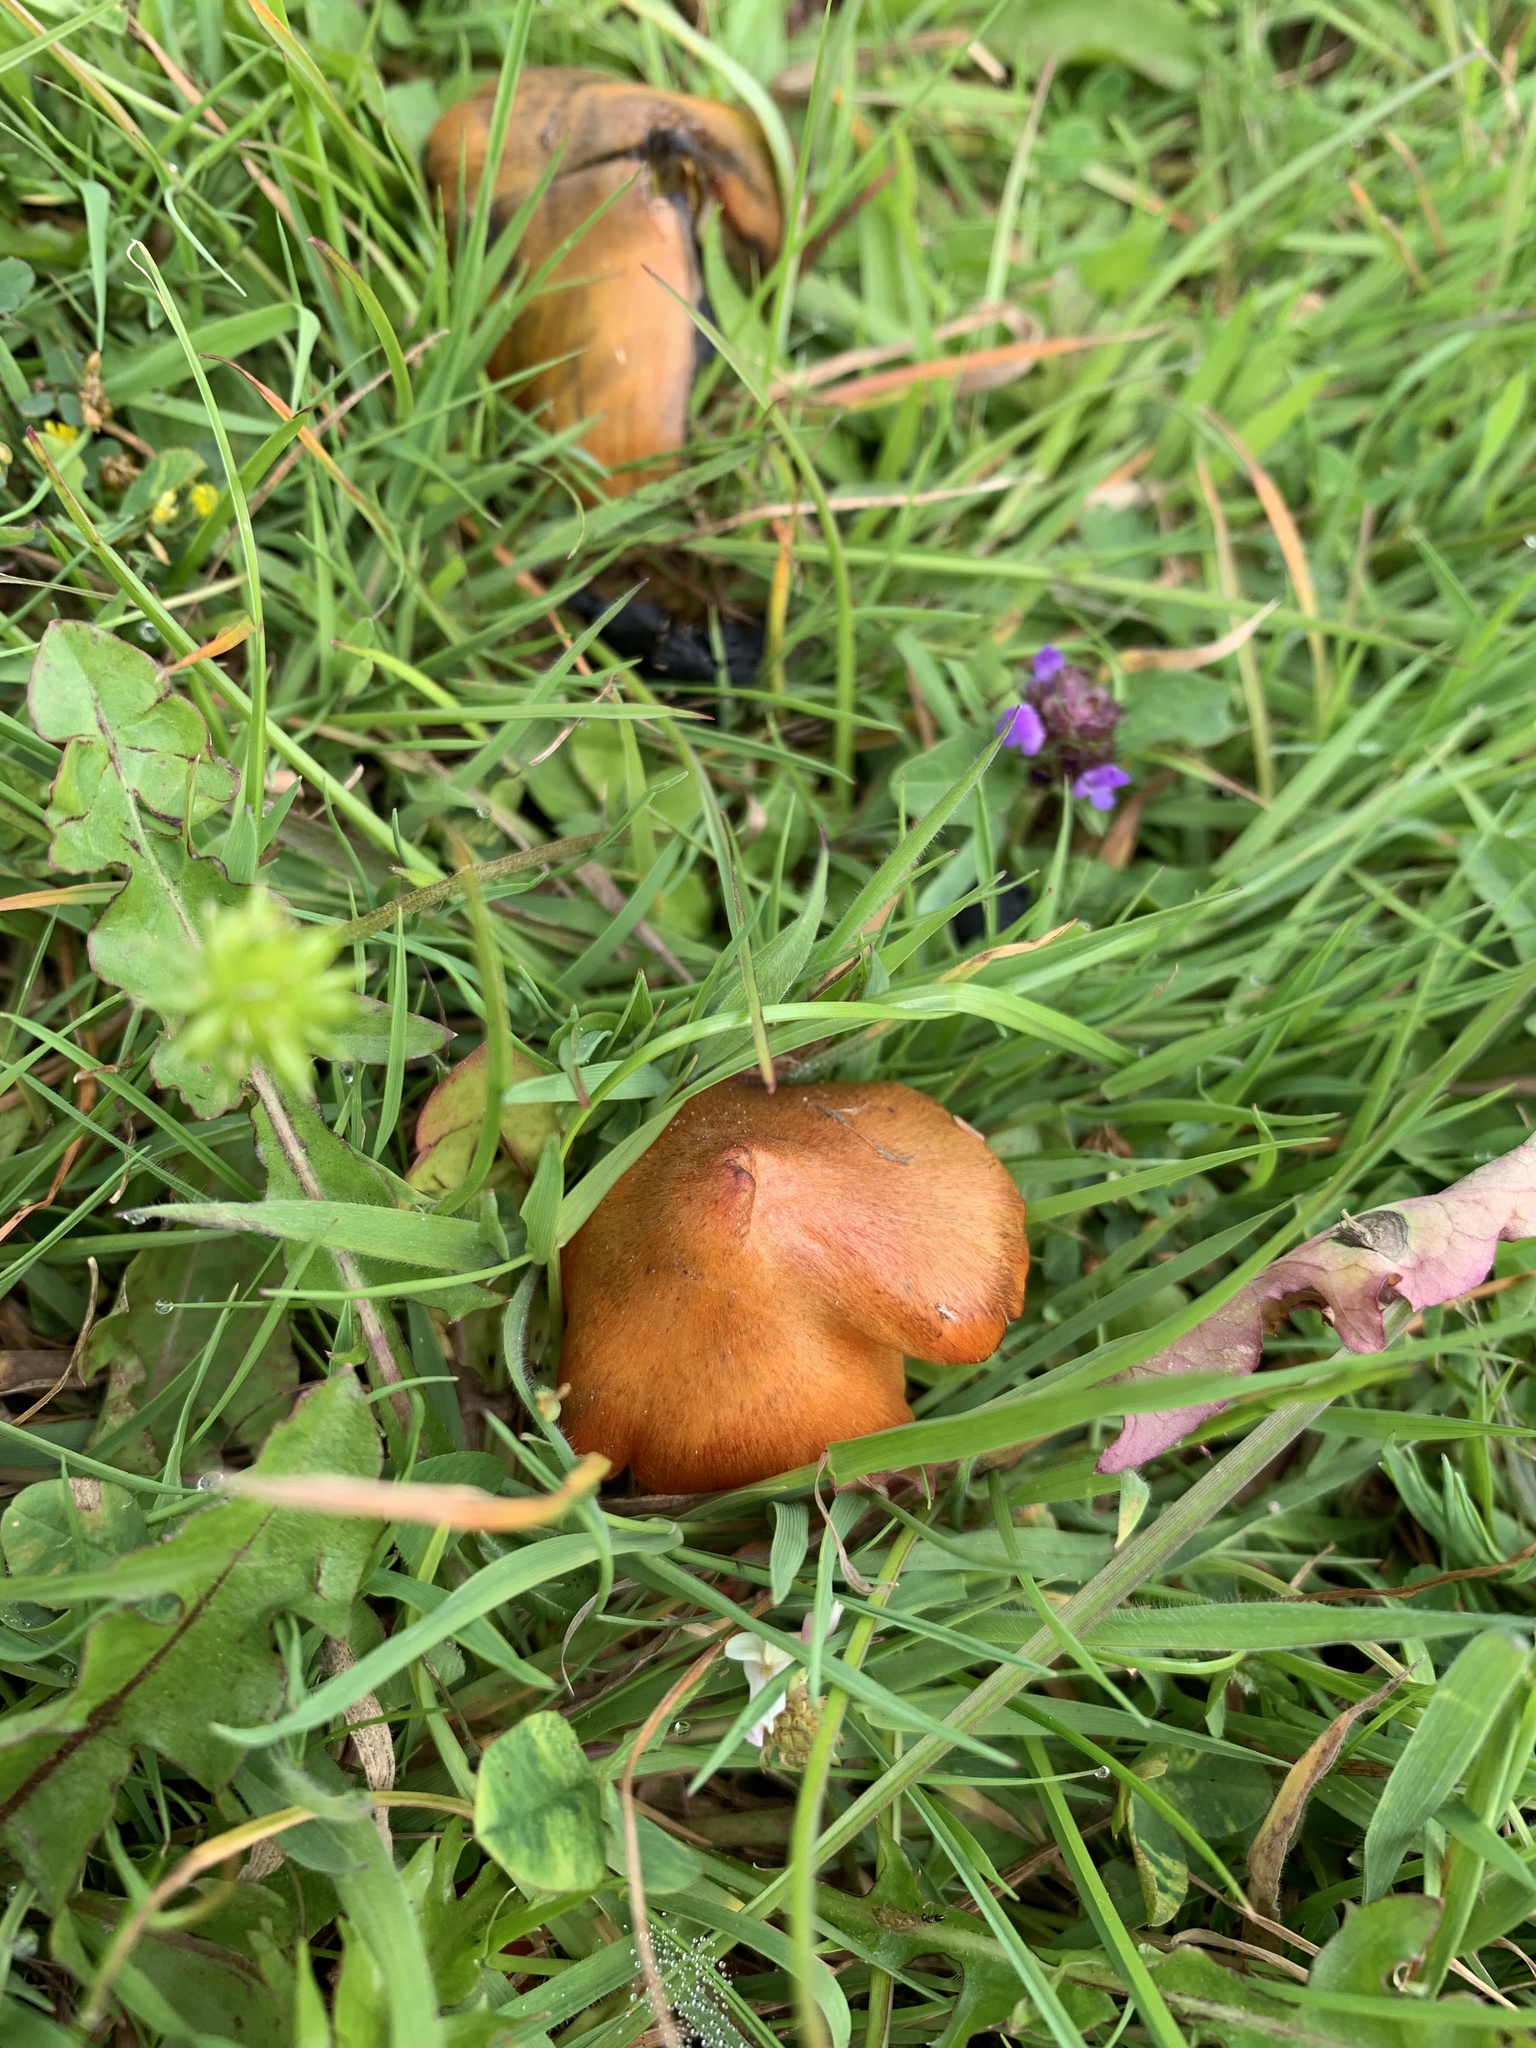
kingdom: Fungi
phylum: Basidiomycota
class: Agaricomycetes
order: Agaricales
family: Hygrophoraceae
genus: Hygrocybe
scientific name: Hygrocybe conica
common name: Blackening wax-cap
